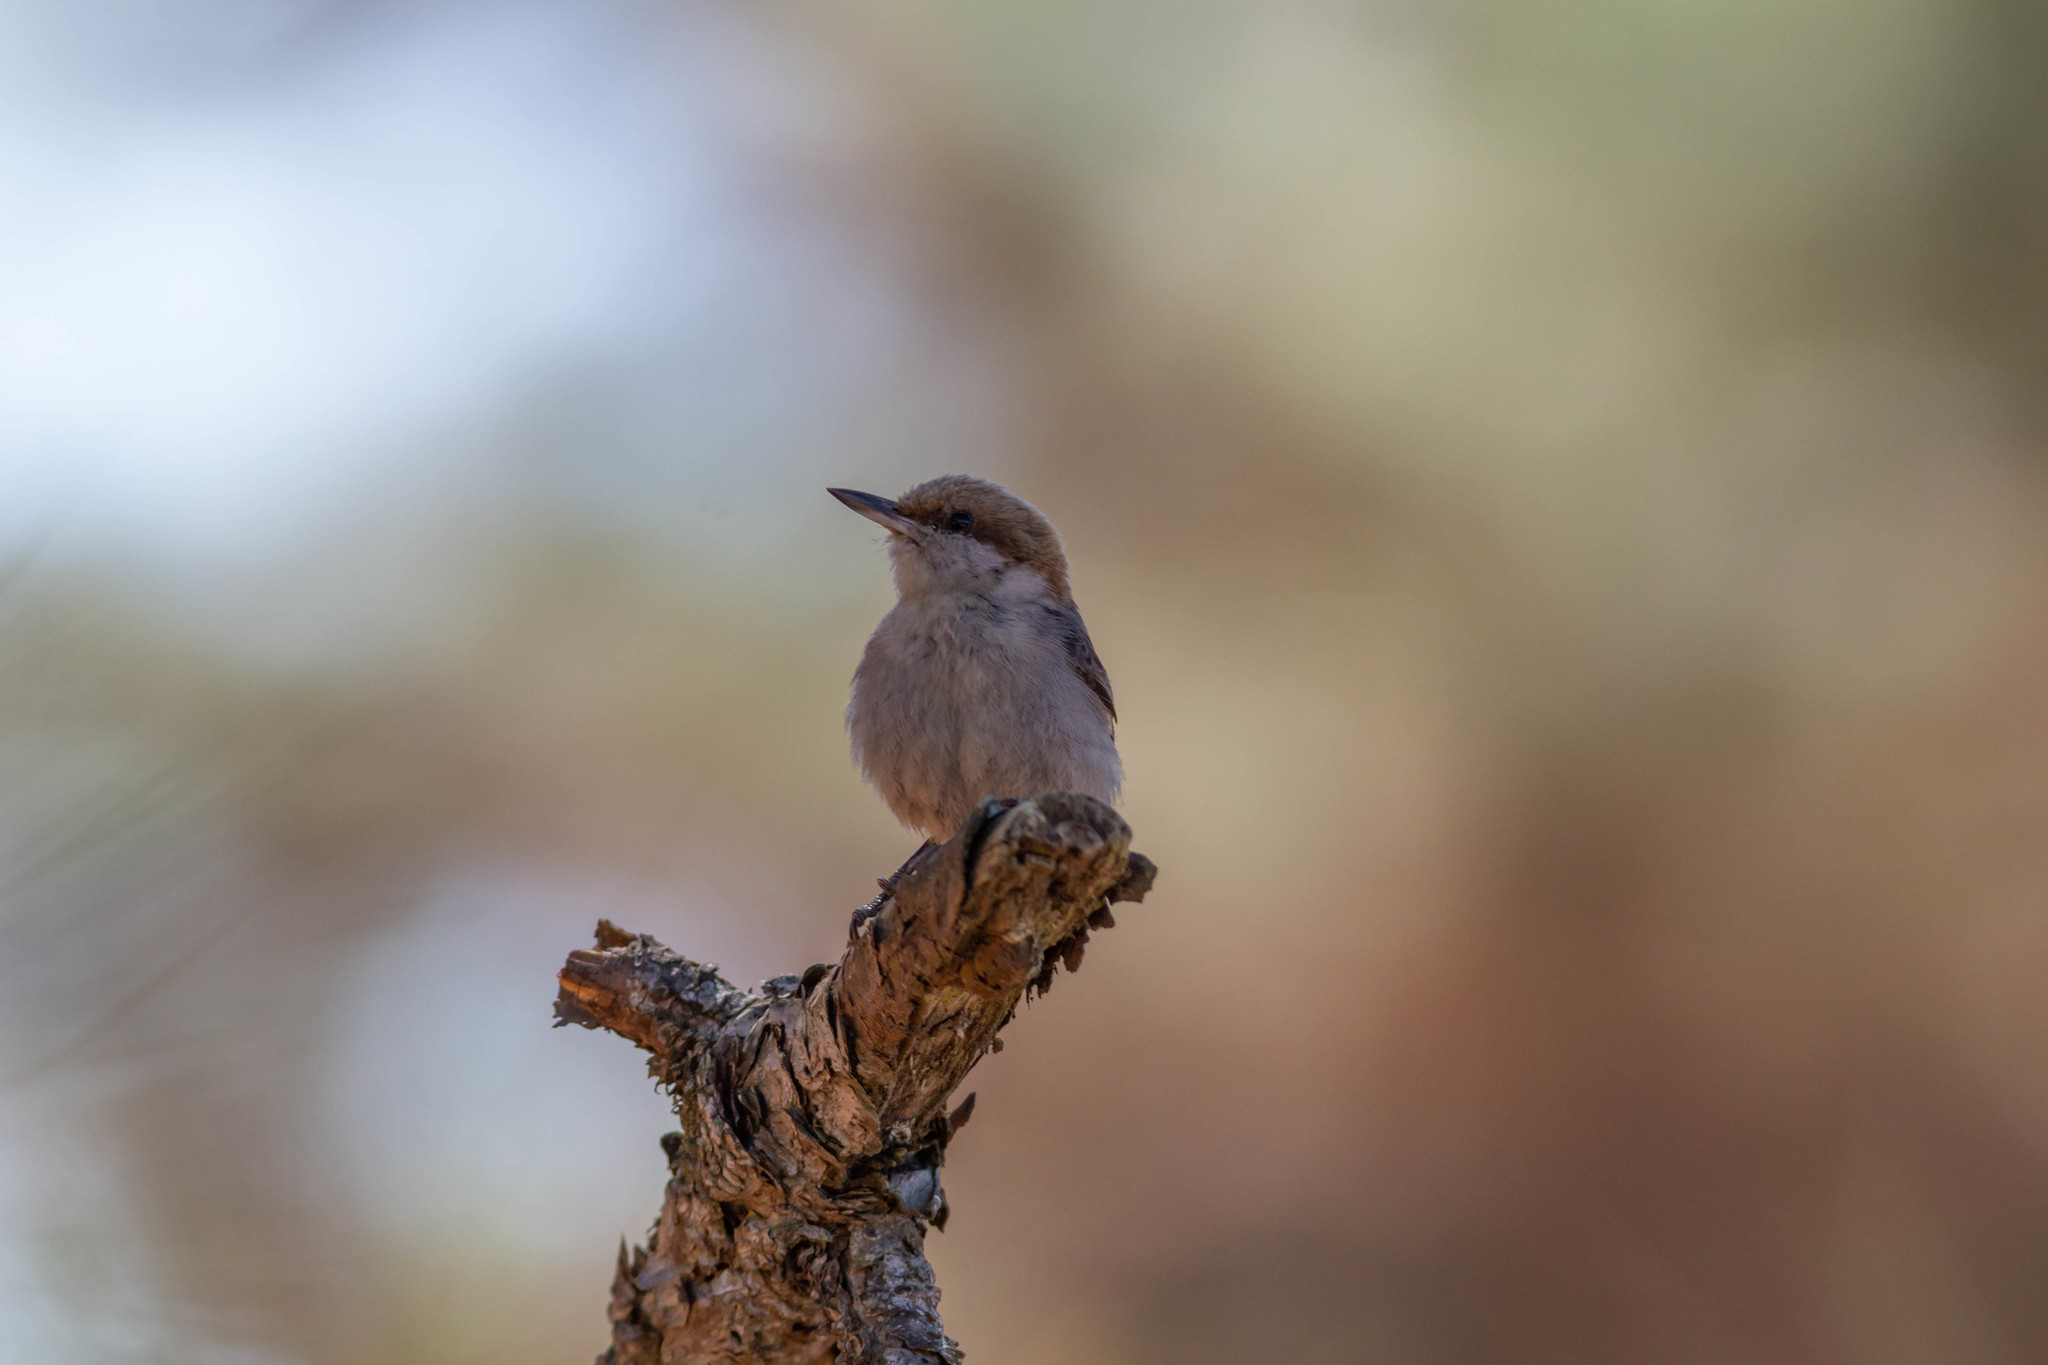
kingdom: Animalia
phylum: Chordata
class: Aves
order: Passeriformes
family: Sittidae
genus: Sitta
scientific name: Sitta pusilla
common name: Brown-headed nuthatch
